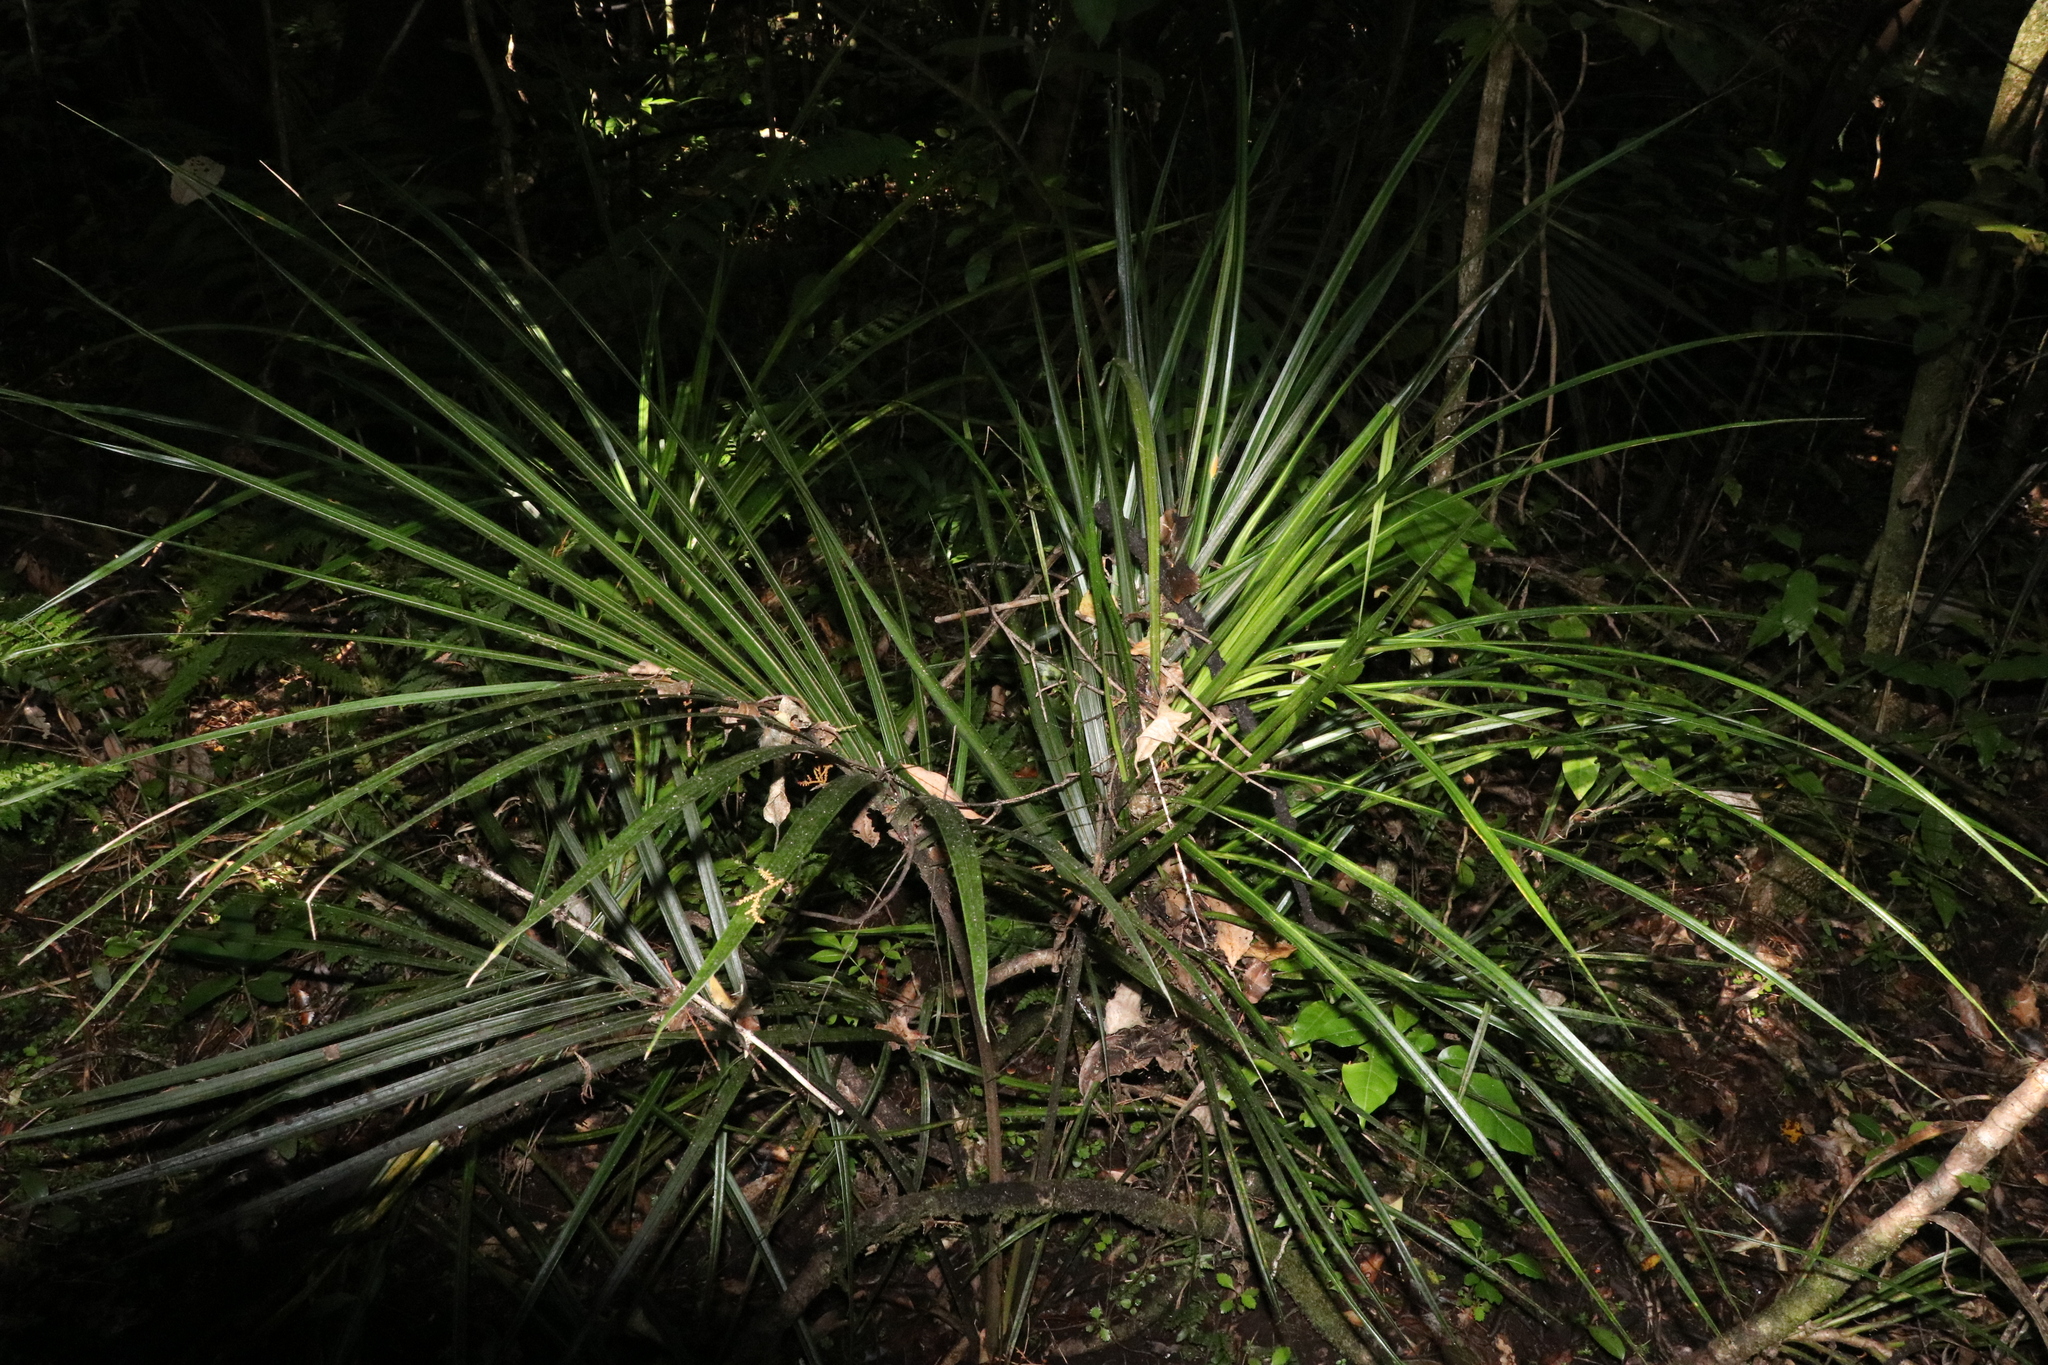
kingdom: Plantae
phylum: Tracheophyta
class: Liliopsida
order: Arecales
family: Arecaceae
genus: Rhopalostylis
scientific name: Rhopalostylis sapida
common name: Feather-duster palm
